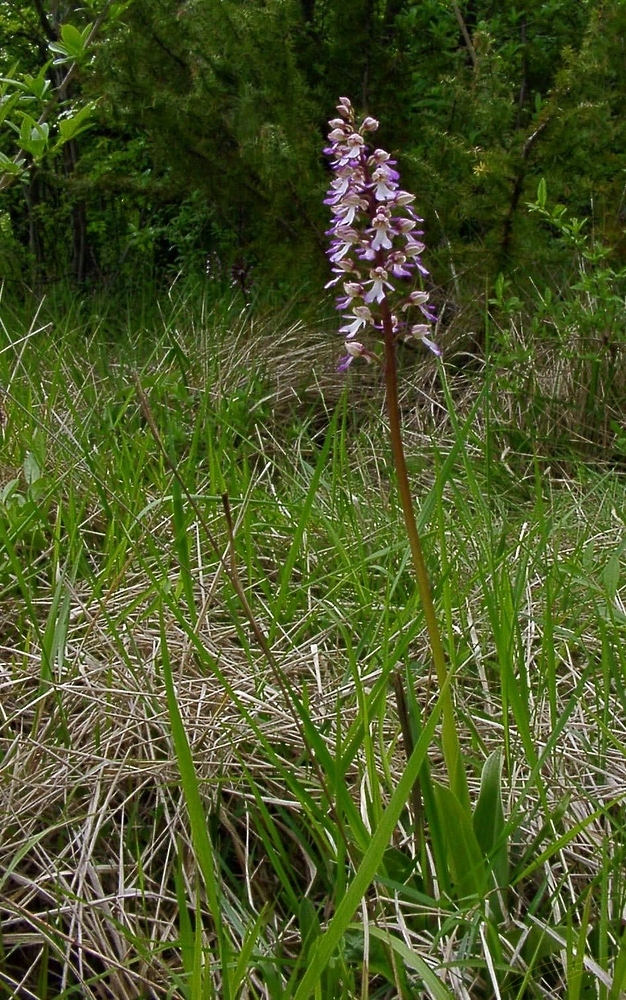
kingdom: Plantae
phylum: Tracheophyta
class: Liliopsida
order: Asparagales
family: Orchidaceae
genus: Orchis
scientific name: Orchis purpurea
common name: Lady orchid
